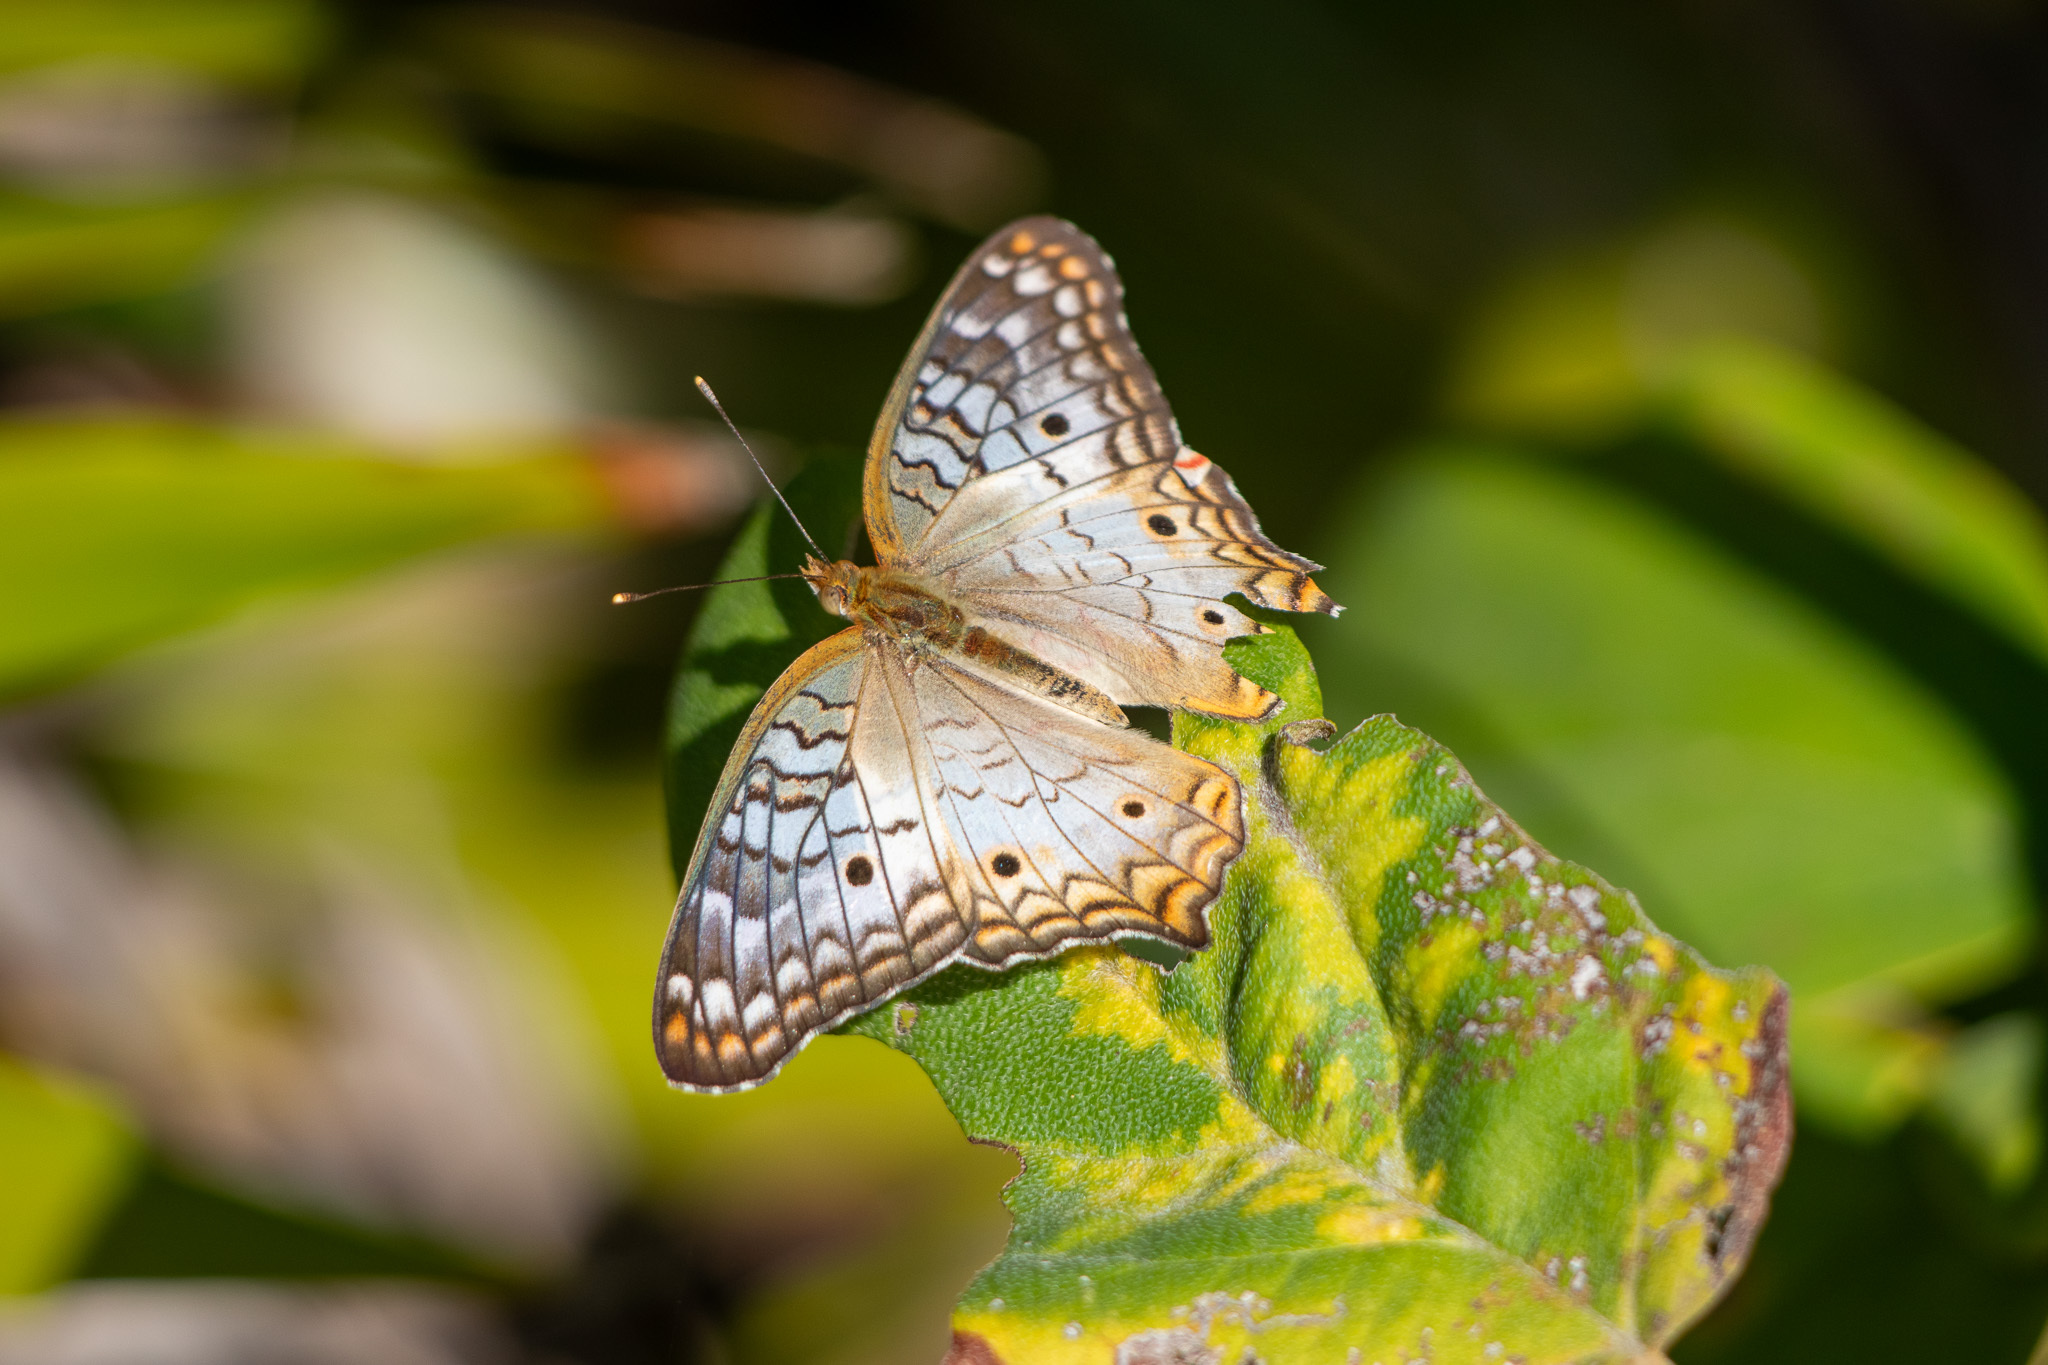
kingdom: Animalia
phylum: Arthropoda
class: Insecta
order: Lepidoptera
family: Nymphalidae
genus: Anartia
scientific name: Anartia jatrophae
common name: White peacock
